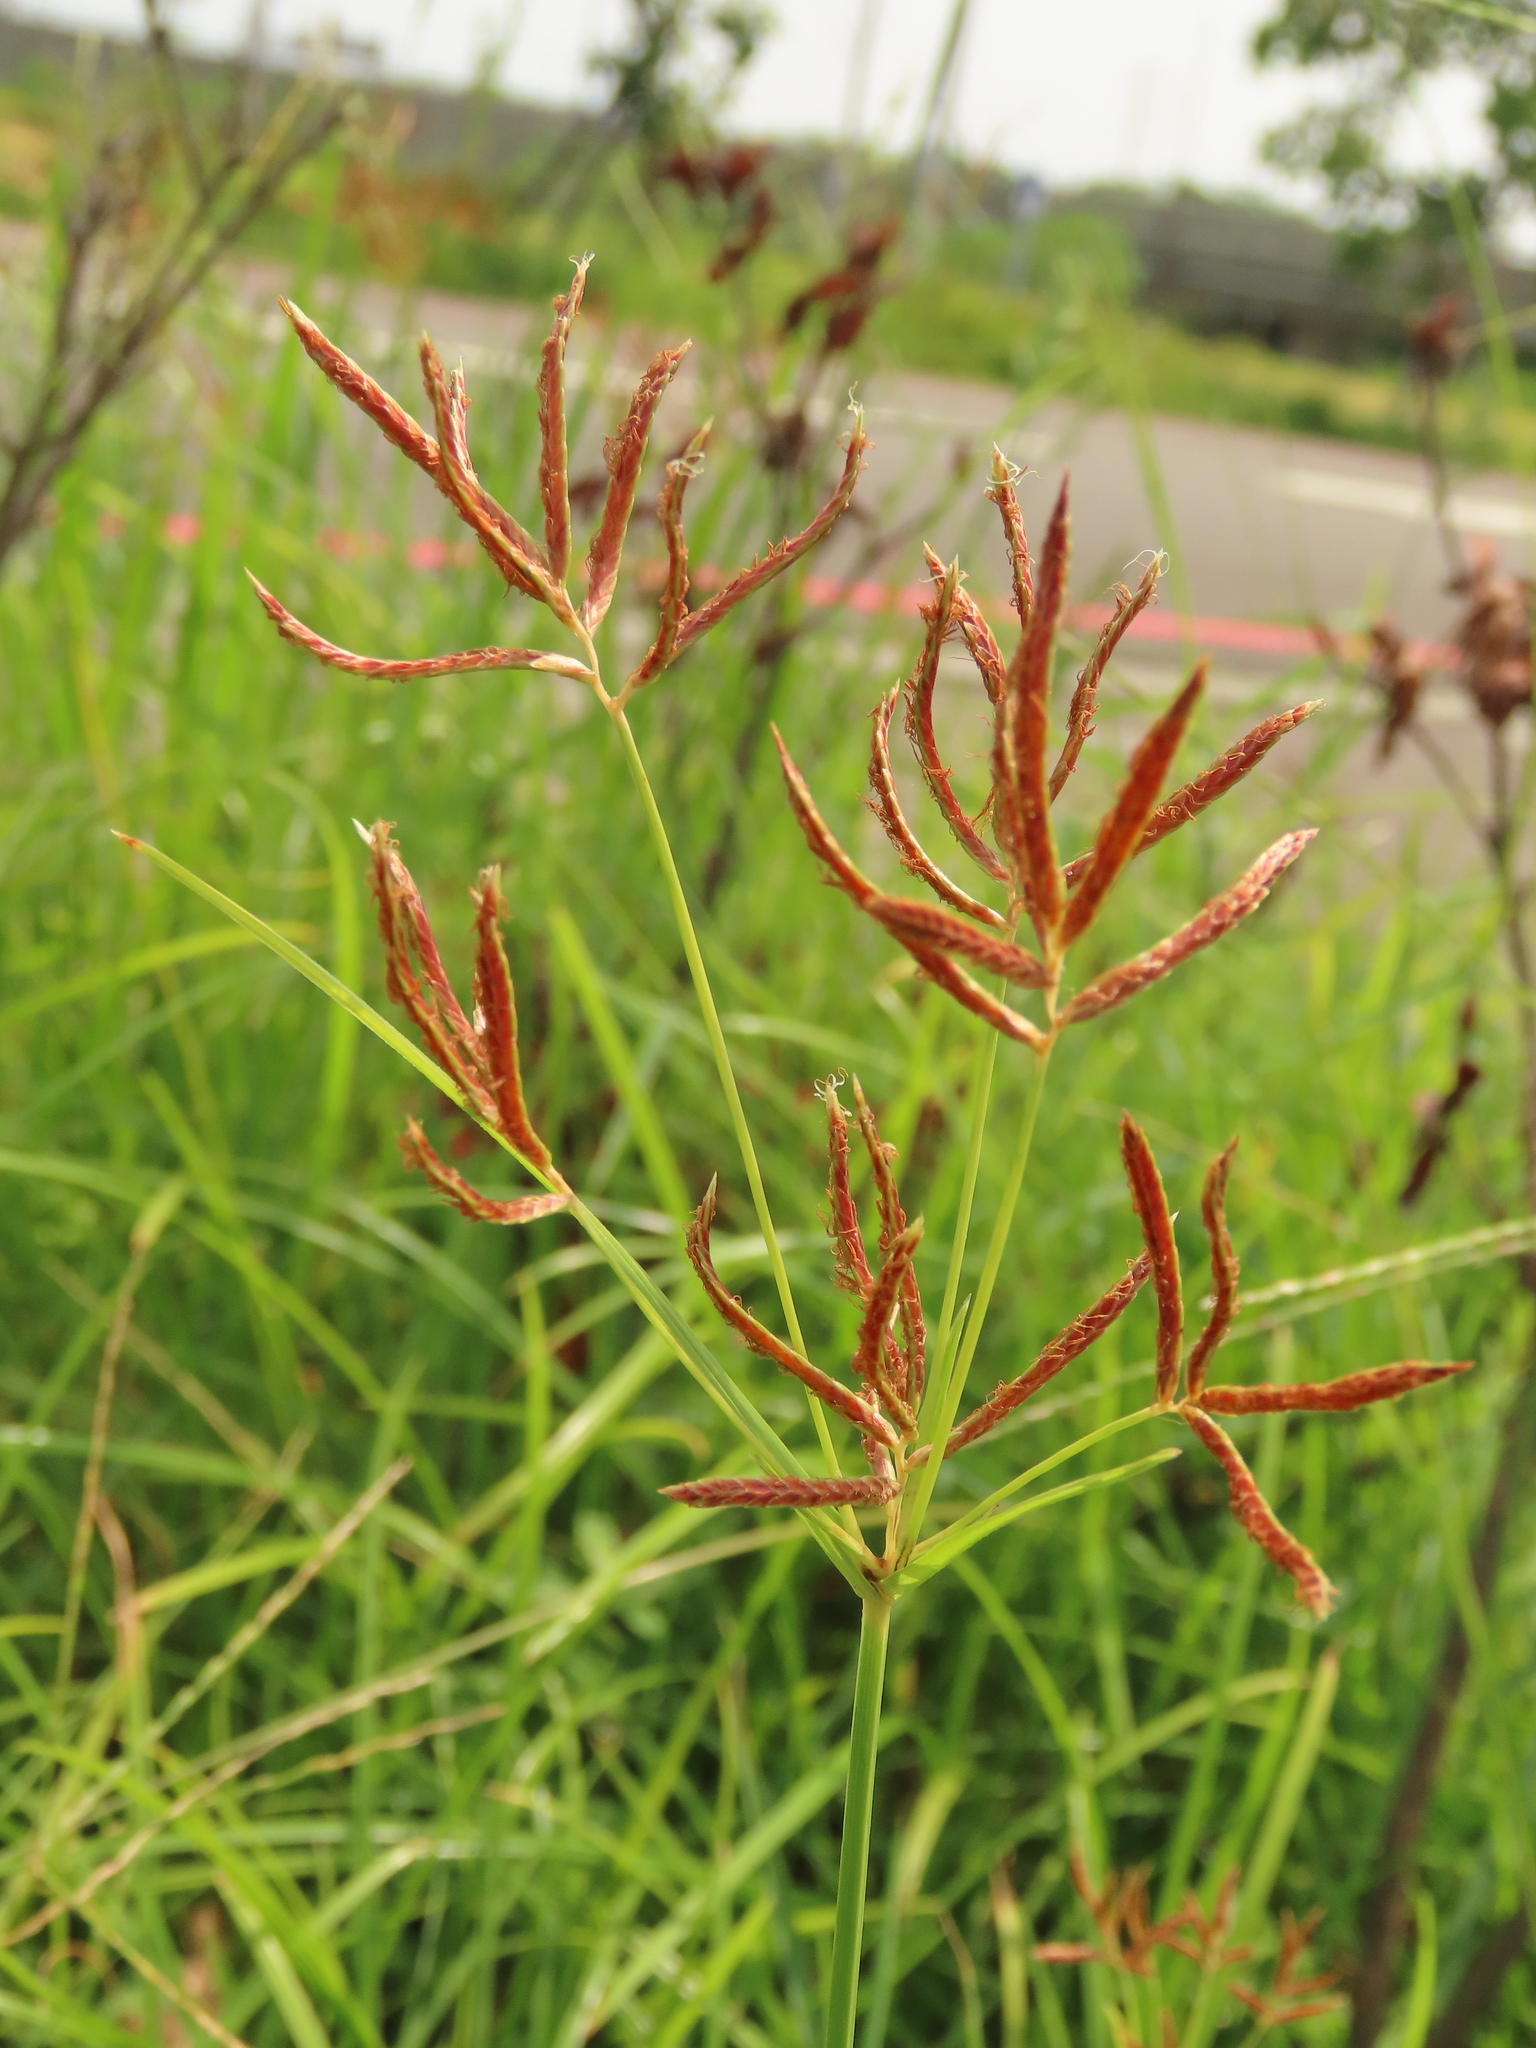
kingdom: Plantae
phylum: Tracheophyta
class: Liliopsida
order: Poales
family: Cyperaceae
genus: Cyperus
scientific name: Cyperus rotundus
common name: Nutgrass
